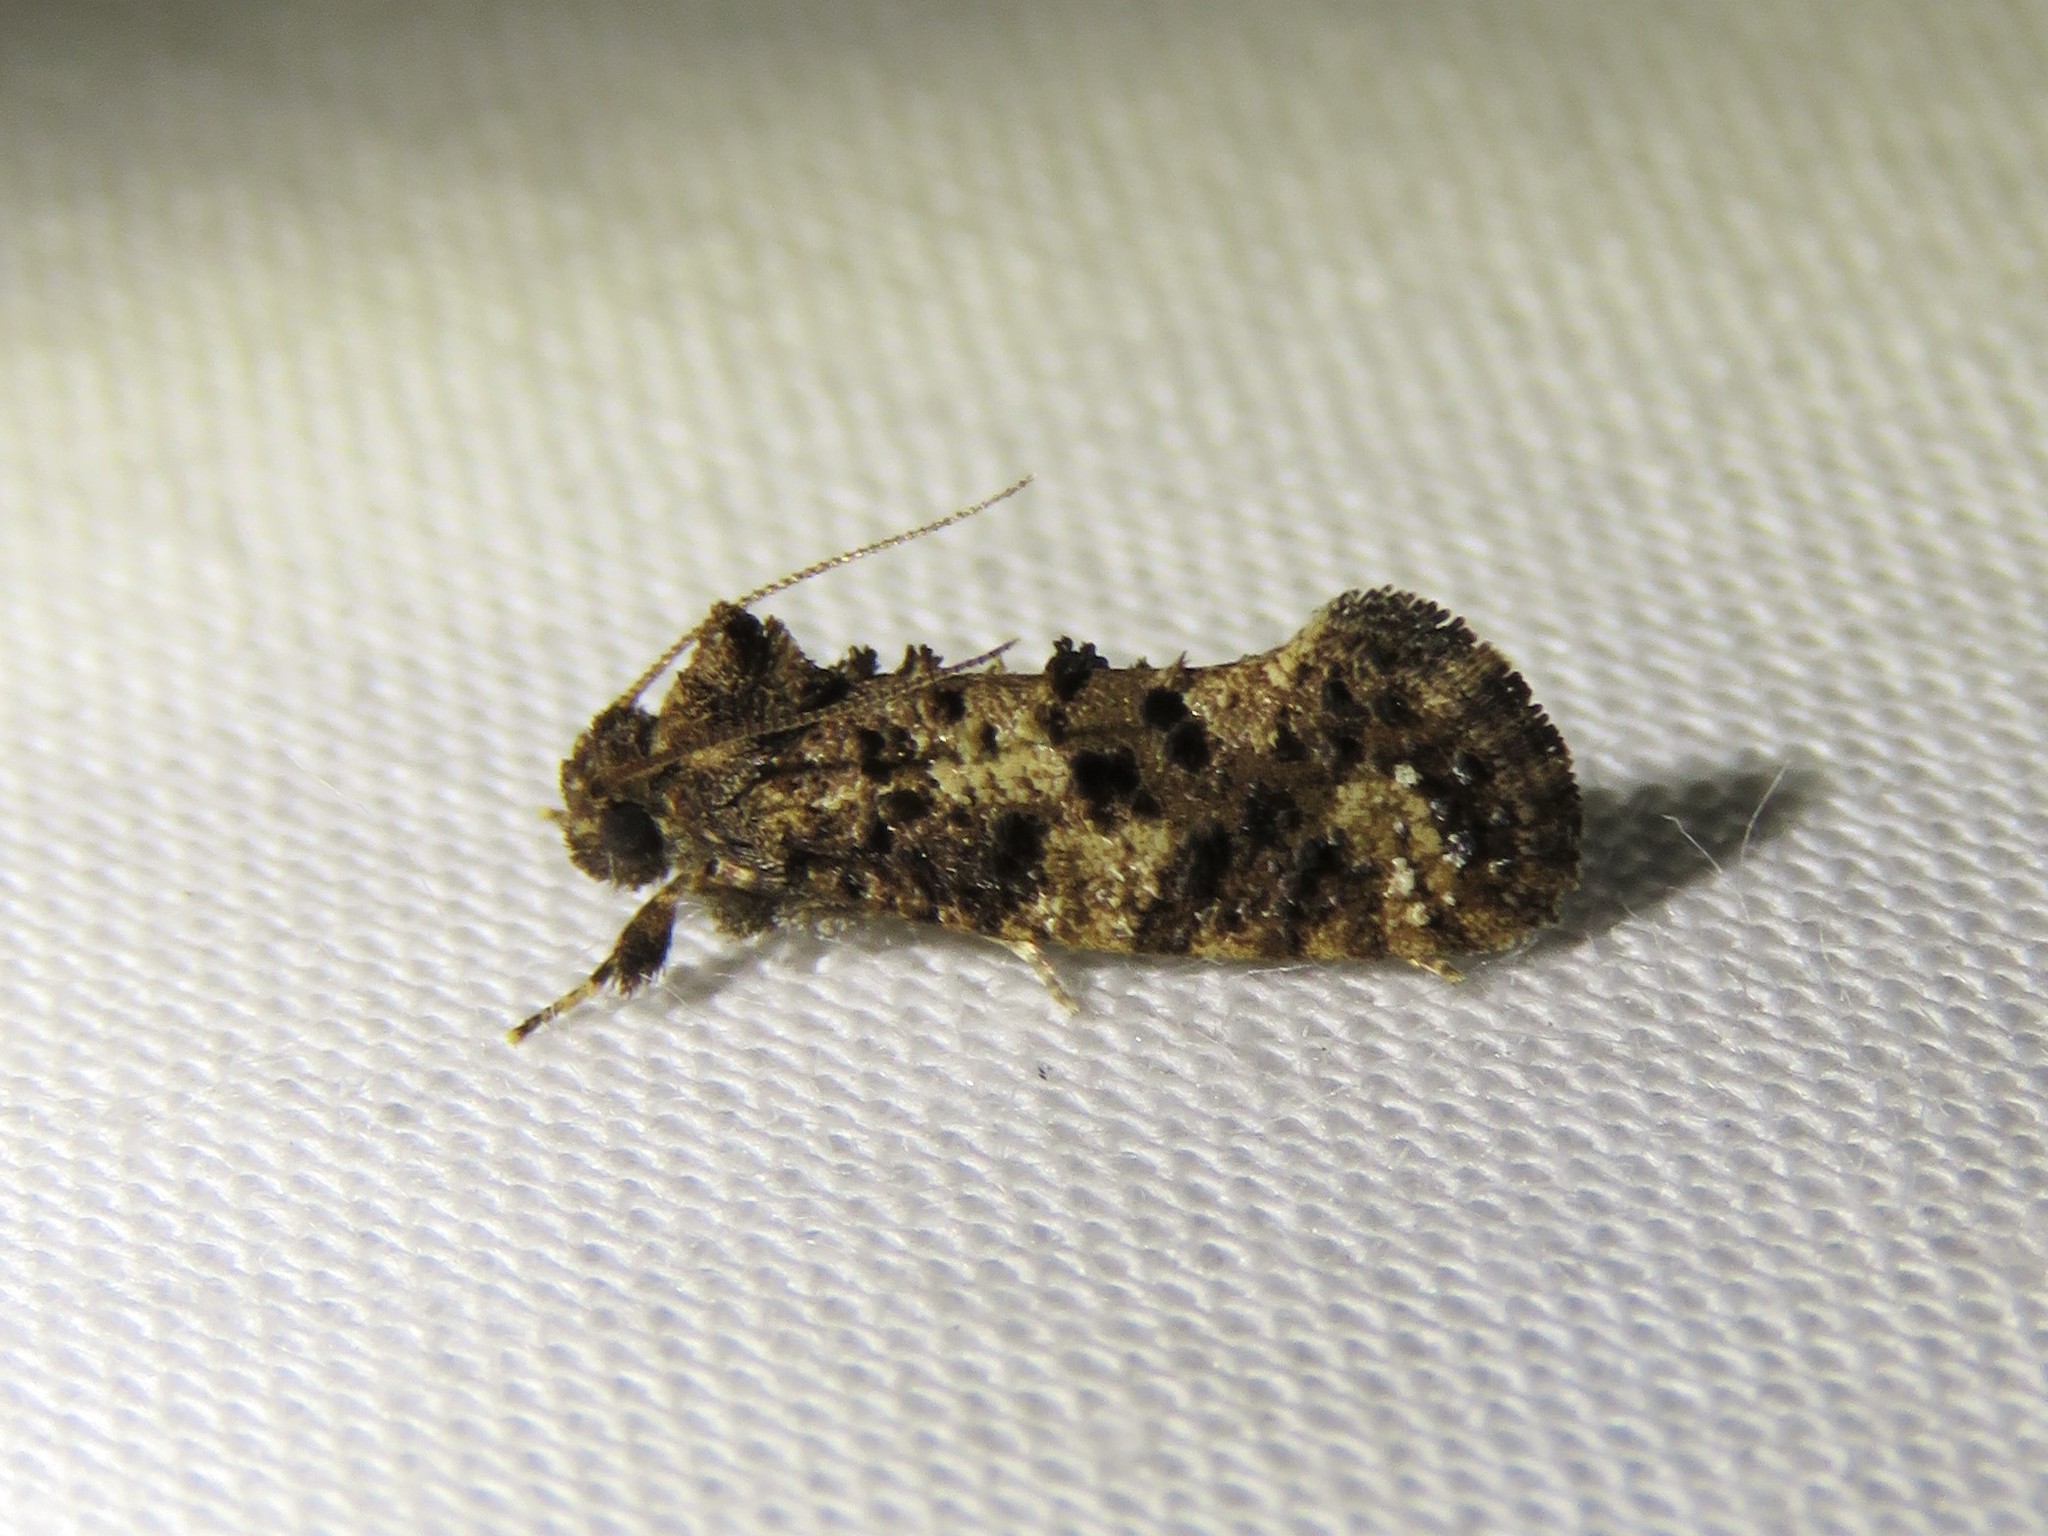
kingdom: Animalia
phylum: Arthropoda
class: Insecta
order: Lepidoptera
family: Tineidae
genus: Acrolophus
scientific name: Acrolophus cressoni
